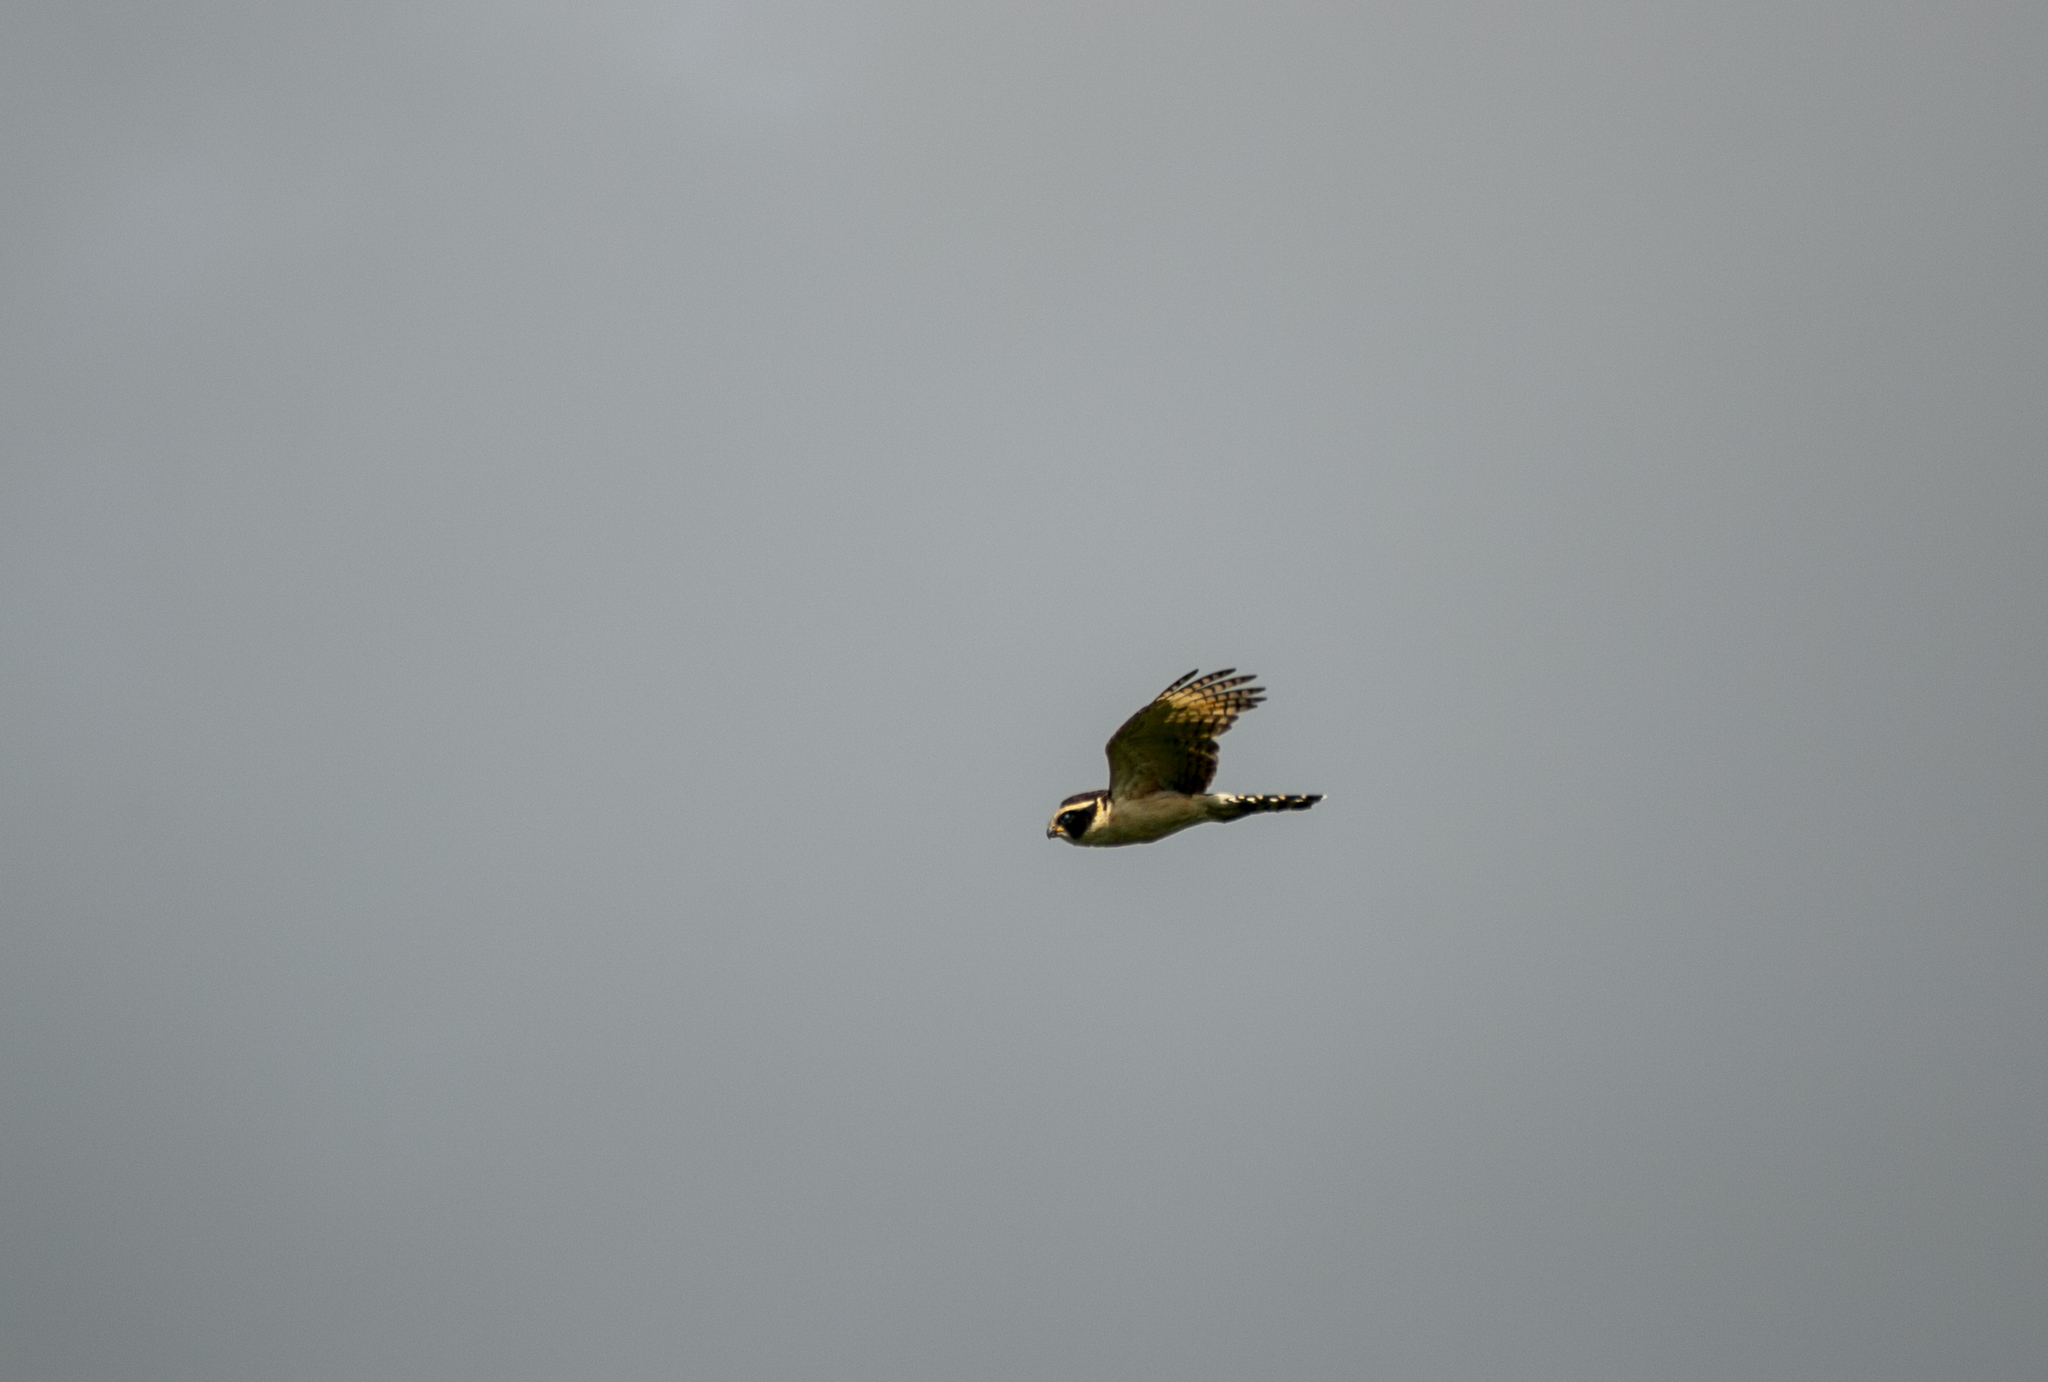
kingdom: Animalia
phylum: Chordata
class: Aves
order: Falconiformes
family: Falconidae
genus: Herpetotheres
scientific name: Herpetotheres cachinnans
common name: Laughing falcon
